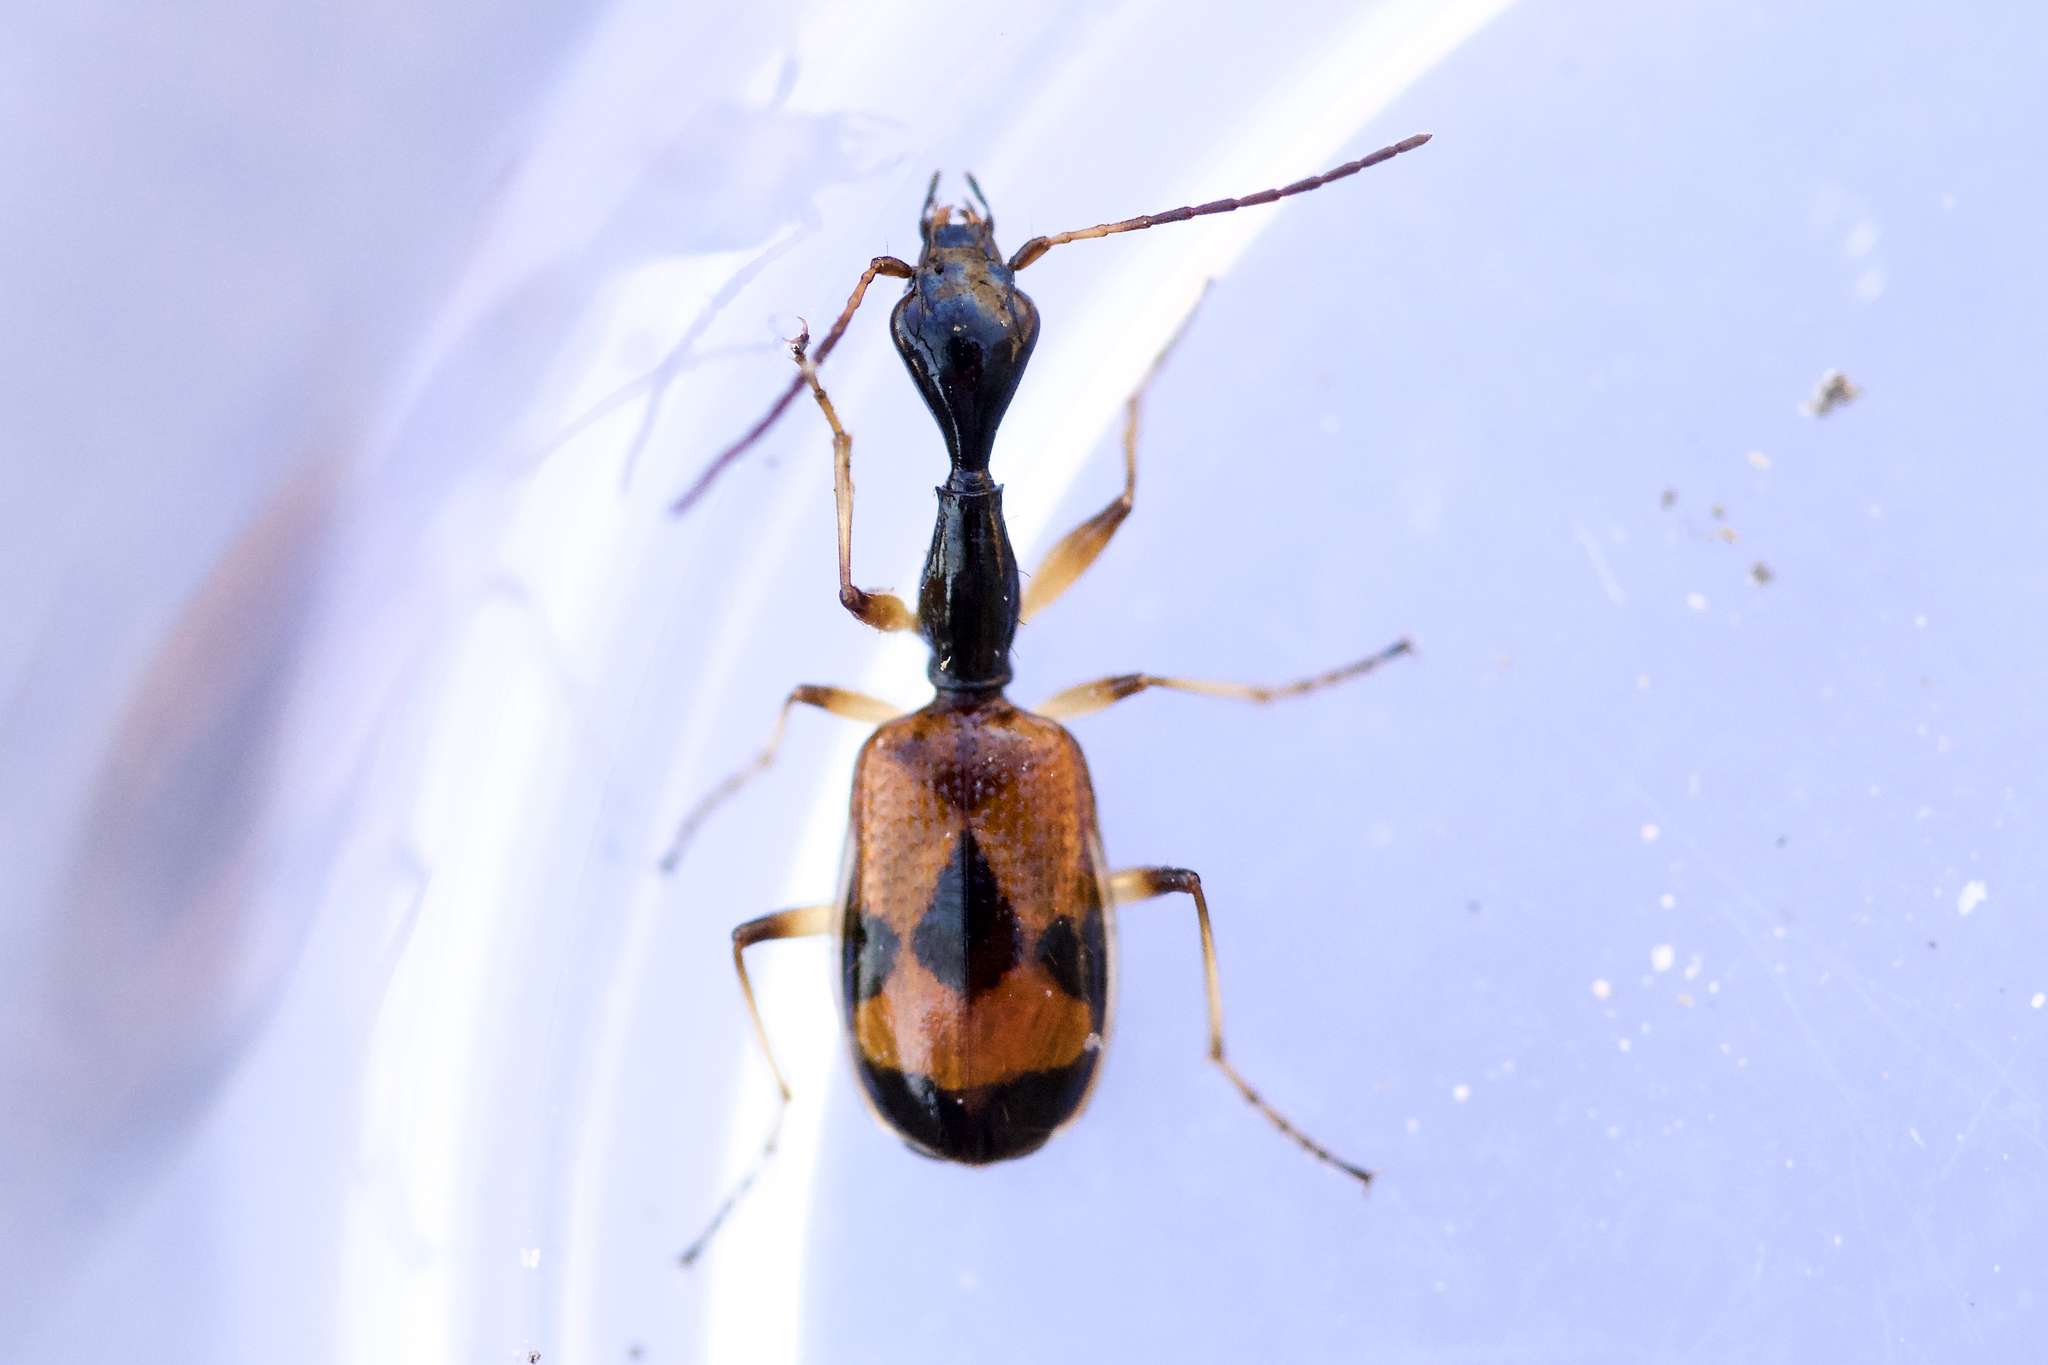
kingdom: Animalia
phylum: Arthropoda
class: Insecta
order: Coleoptera
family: Carabidae
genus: Colliuris
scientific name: Colliuris pensylvanica
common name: Long-necked ground beetle
